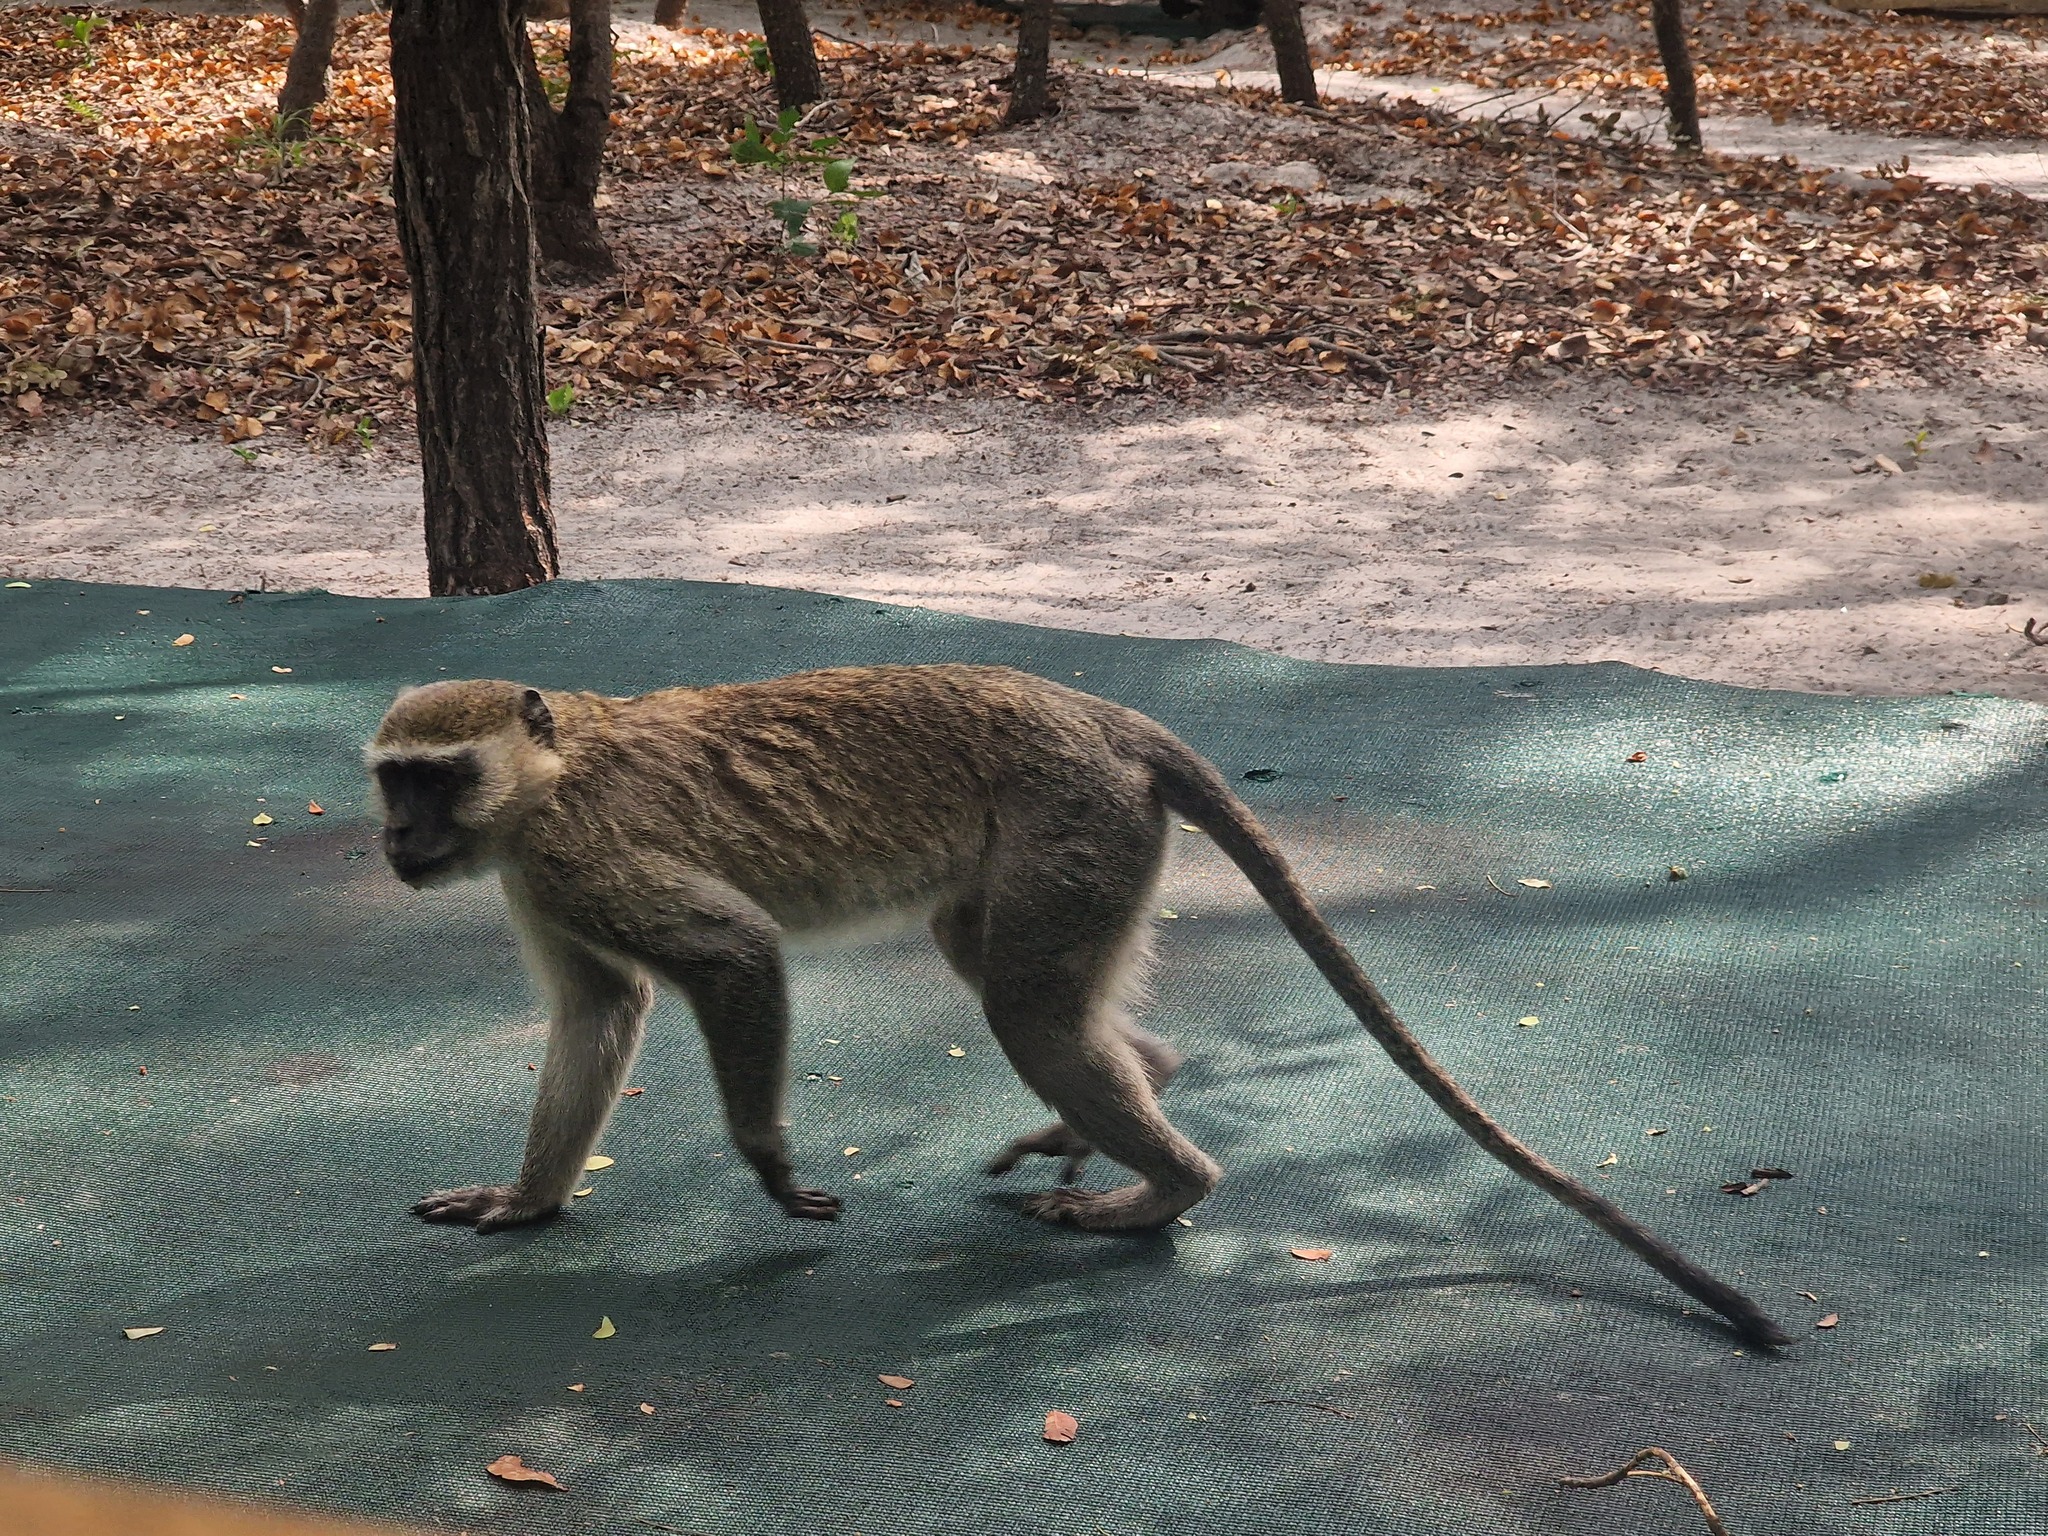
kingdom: Animalia
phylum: Chordata
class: Mammalia
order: Primates
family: Cercopithecidae
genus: Chlorocebus
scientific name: Chlorocebus cynosuros
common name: Malbrouck
